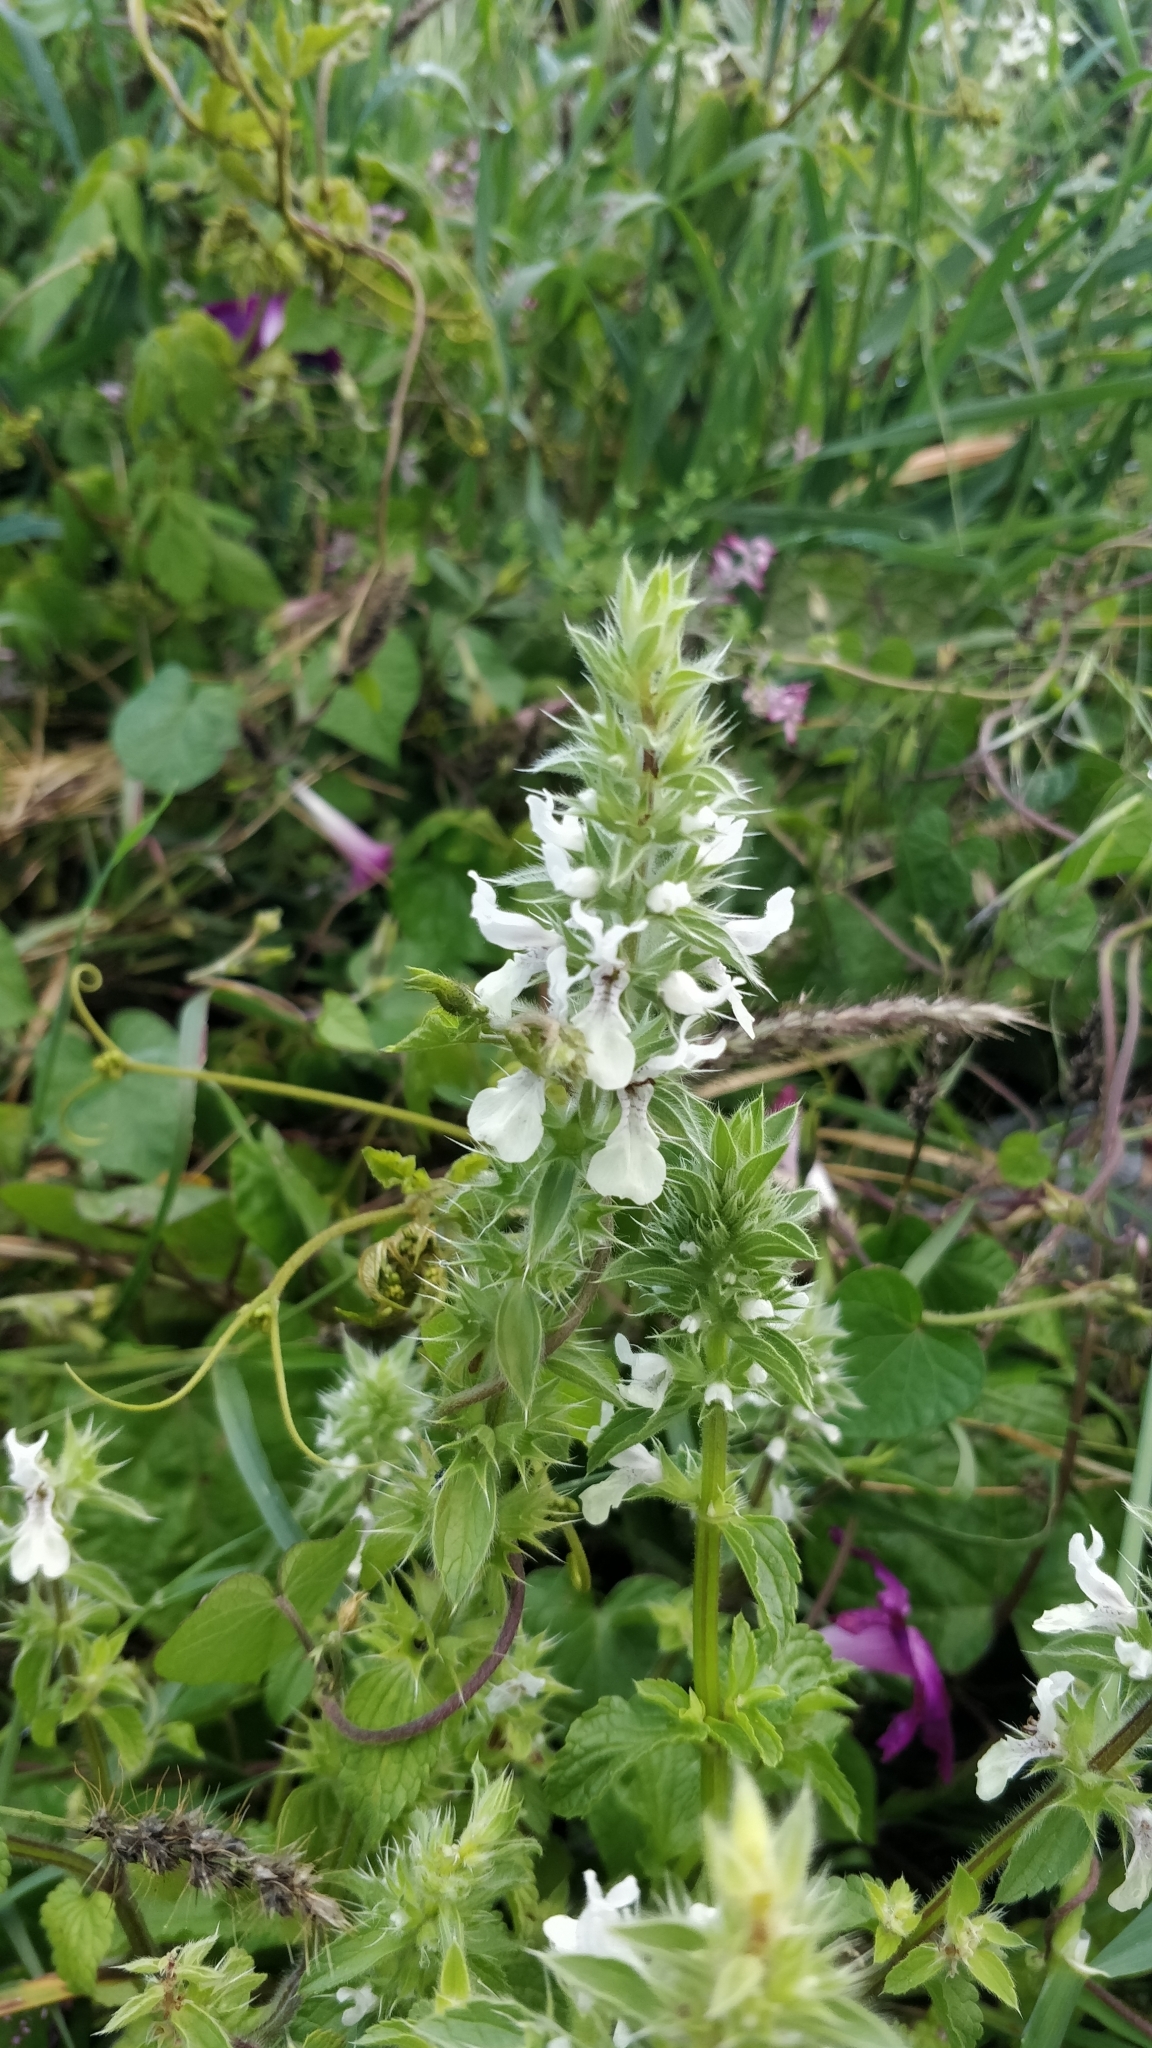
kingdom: Plantae
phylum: Tracheophyta
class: Magnoliopsida
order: Lamiales
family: Lamiaceae
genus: Stachys
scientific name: Stachys ocymastrum
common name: Italian hedgenettle
